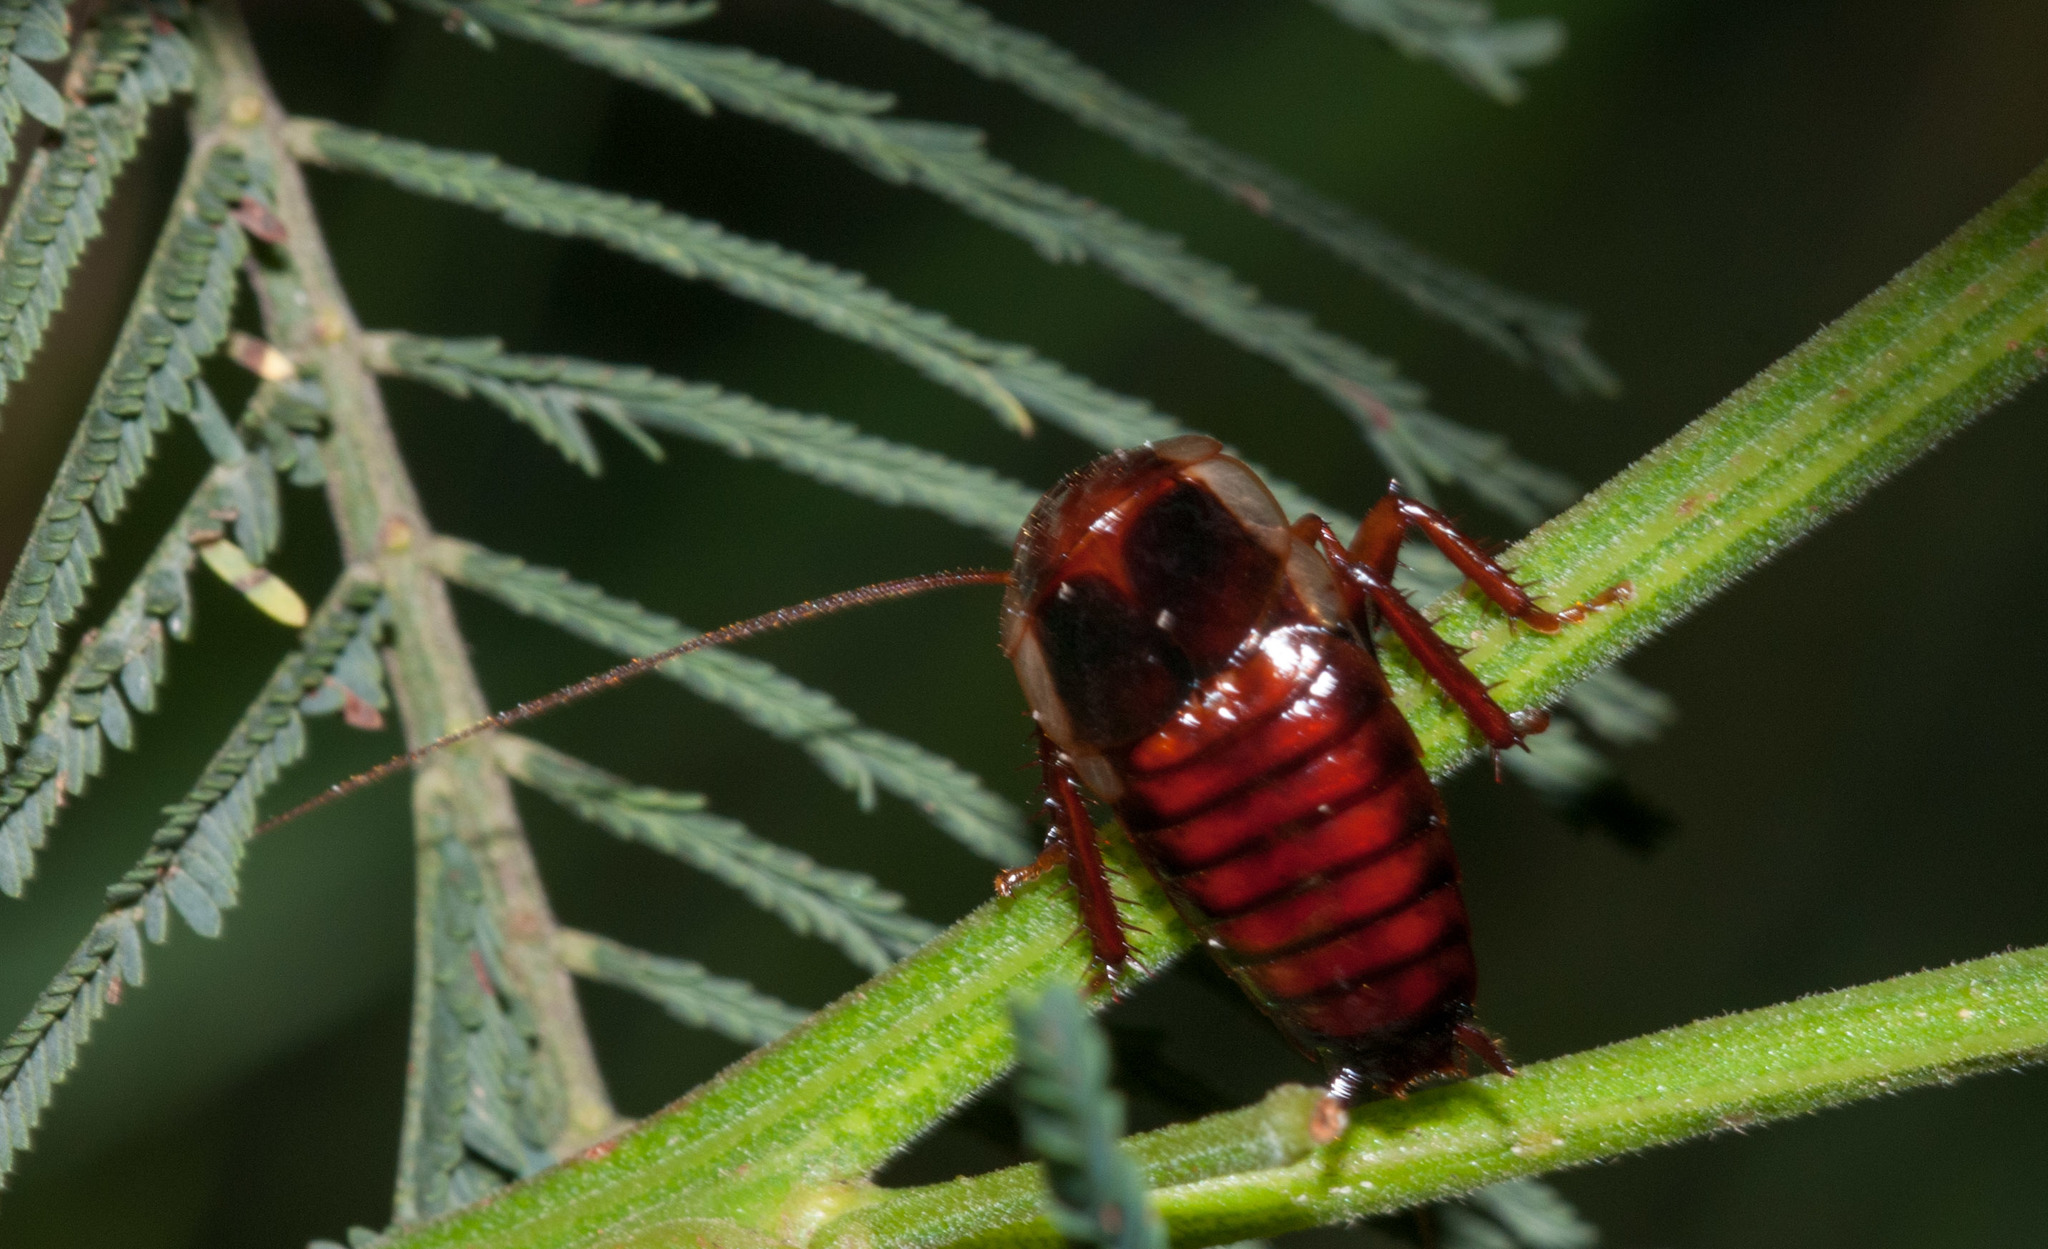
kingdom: Animalia
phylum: Arthropoda
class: Insecta
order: Blattodea
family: Blattidae
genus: Temnelytra
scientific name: Temnelytra subtruncata
